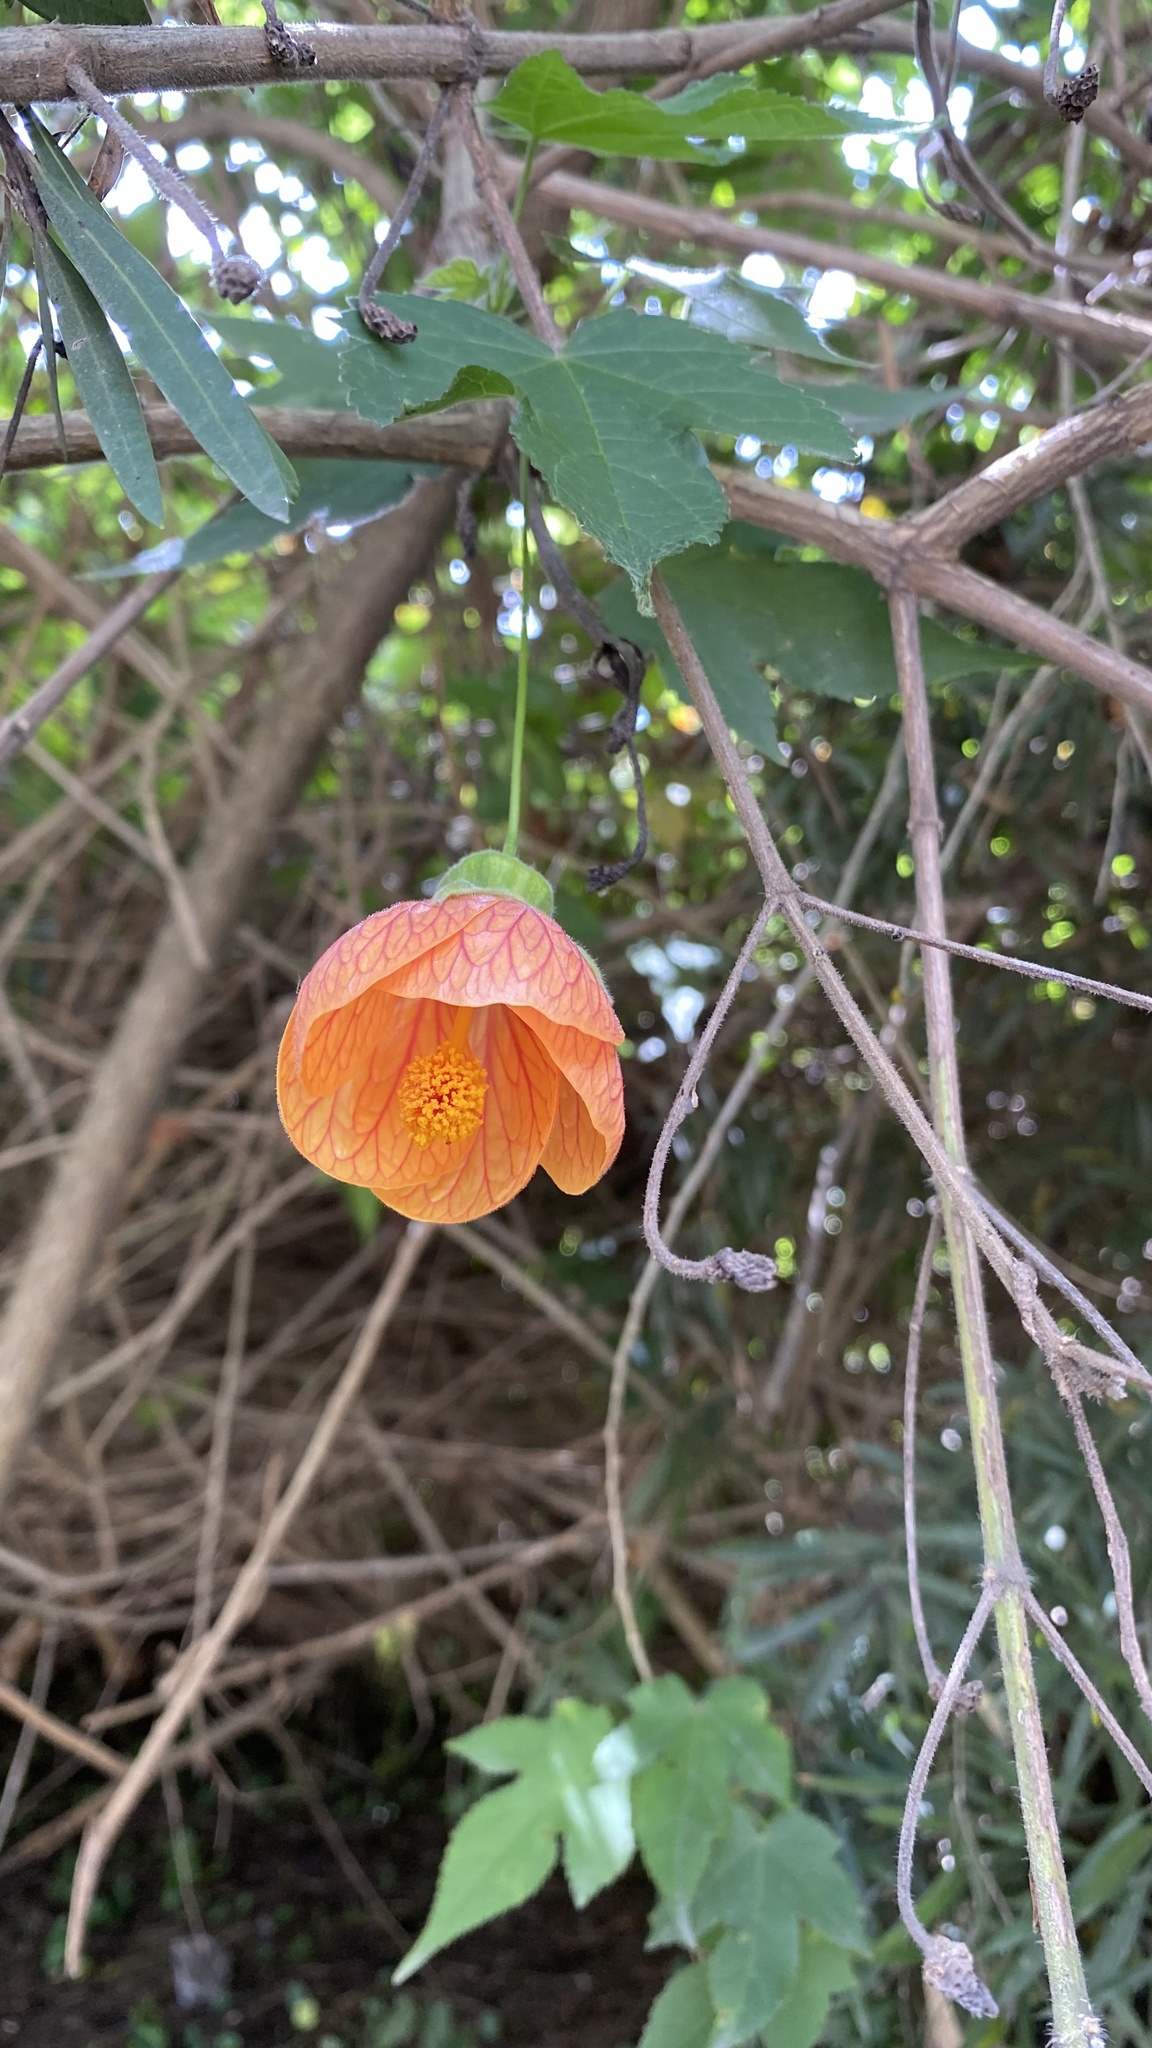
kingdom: Plantae
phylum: Tracheophyta
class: Magnoliopsida
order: Malvales
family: Malvaceae
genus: Callianthe
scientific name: Callianthe picta
